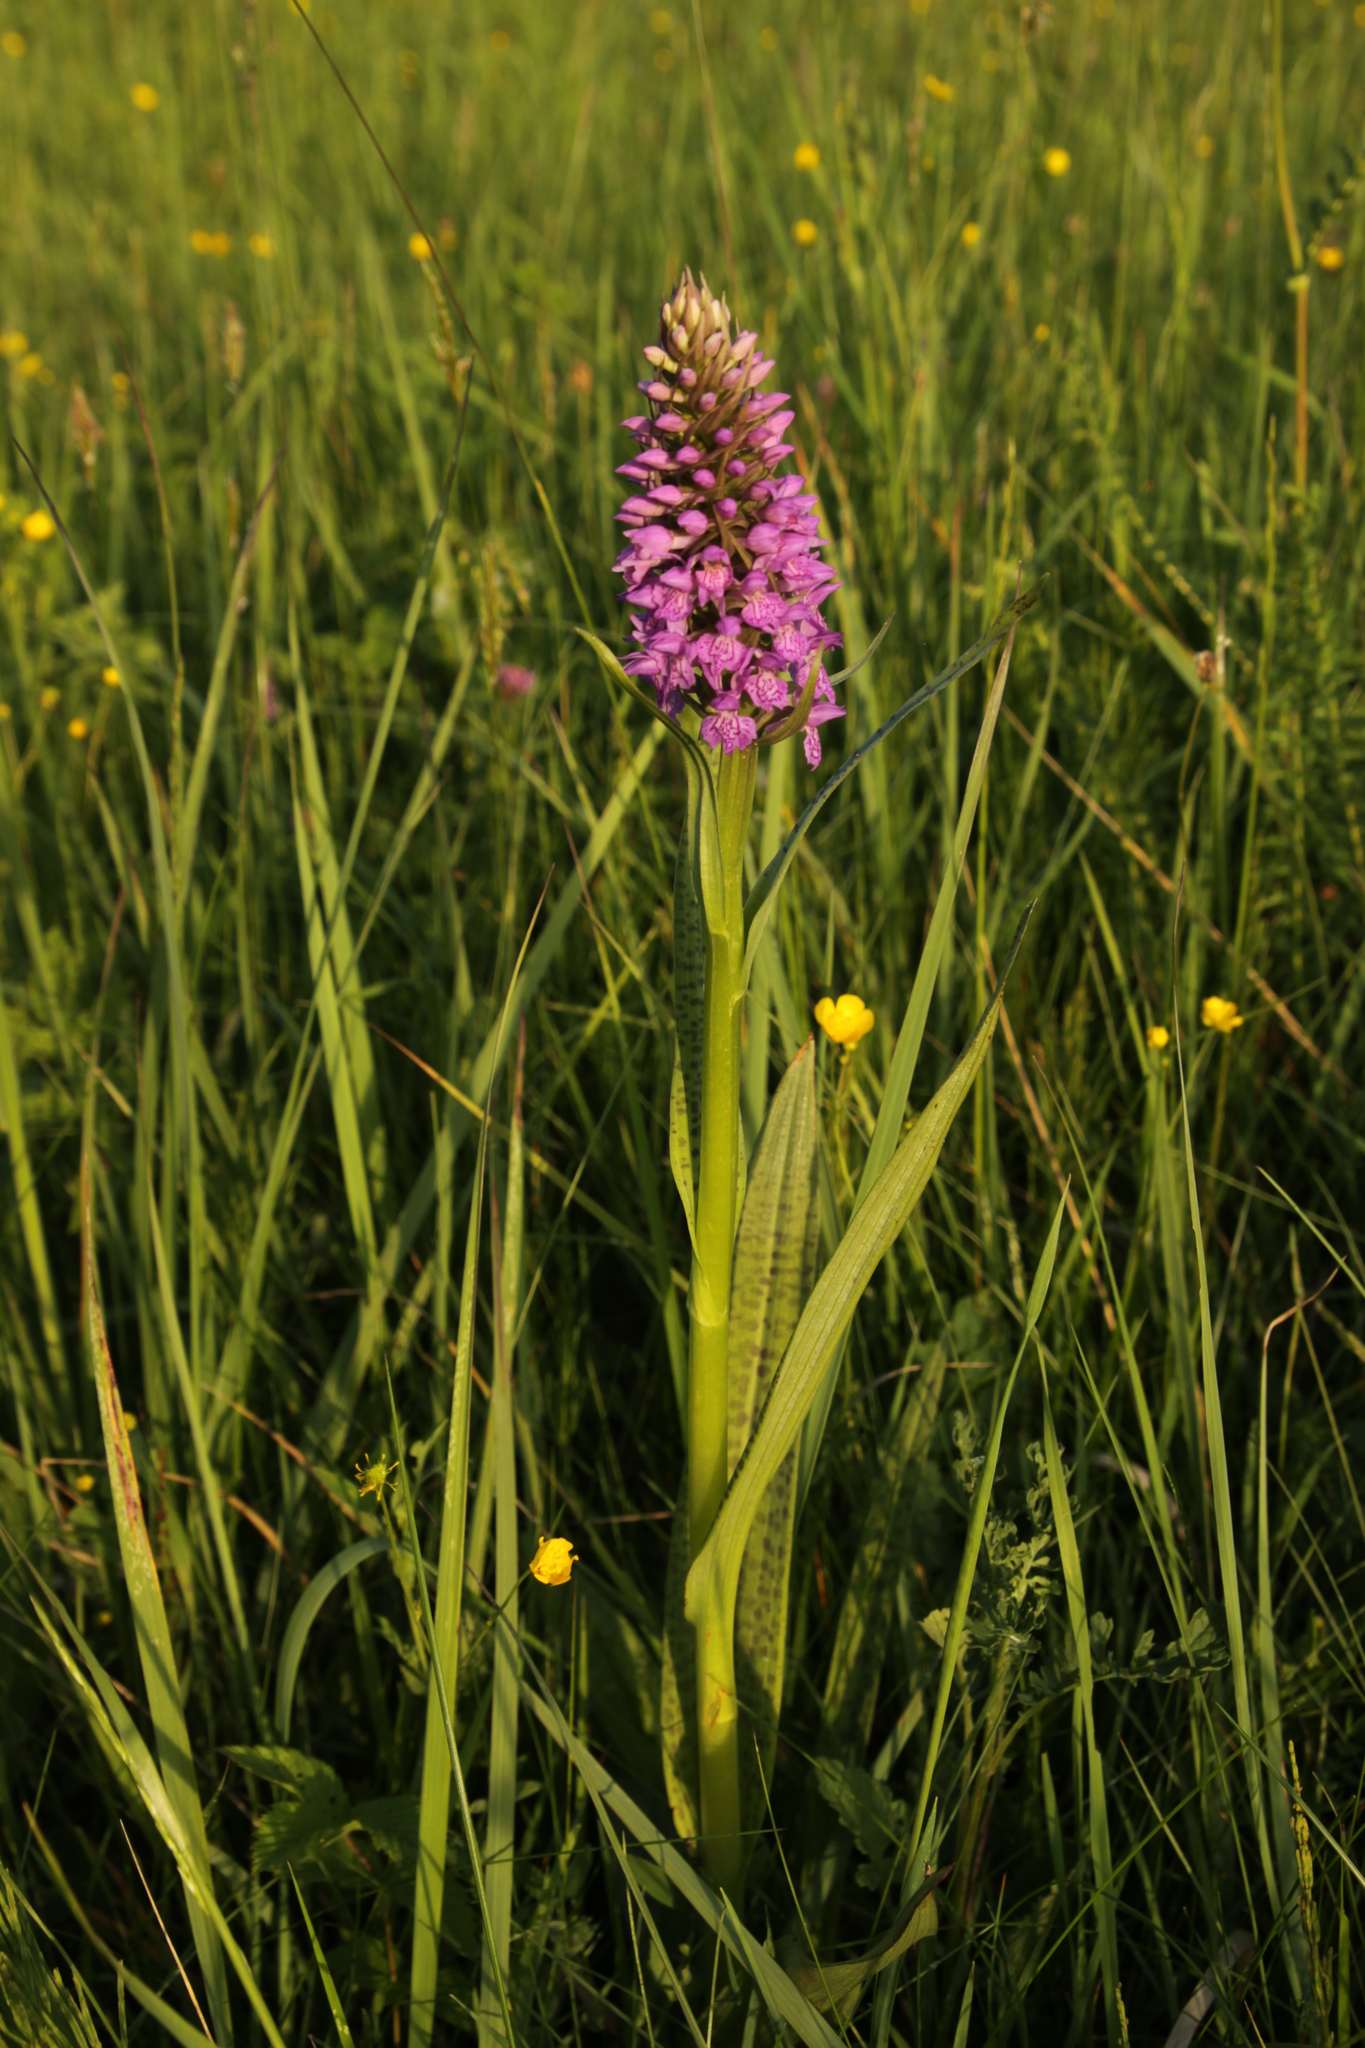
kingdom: Plantae
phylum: Tracheophyta
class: Liliopsida
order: Asparagales
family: Orchidaceae
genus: Dactylorhiza
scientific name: Dactylorhiza majalis
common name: Marsh orchid
